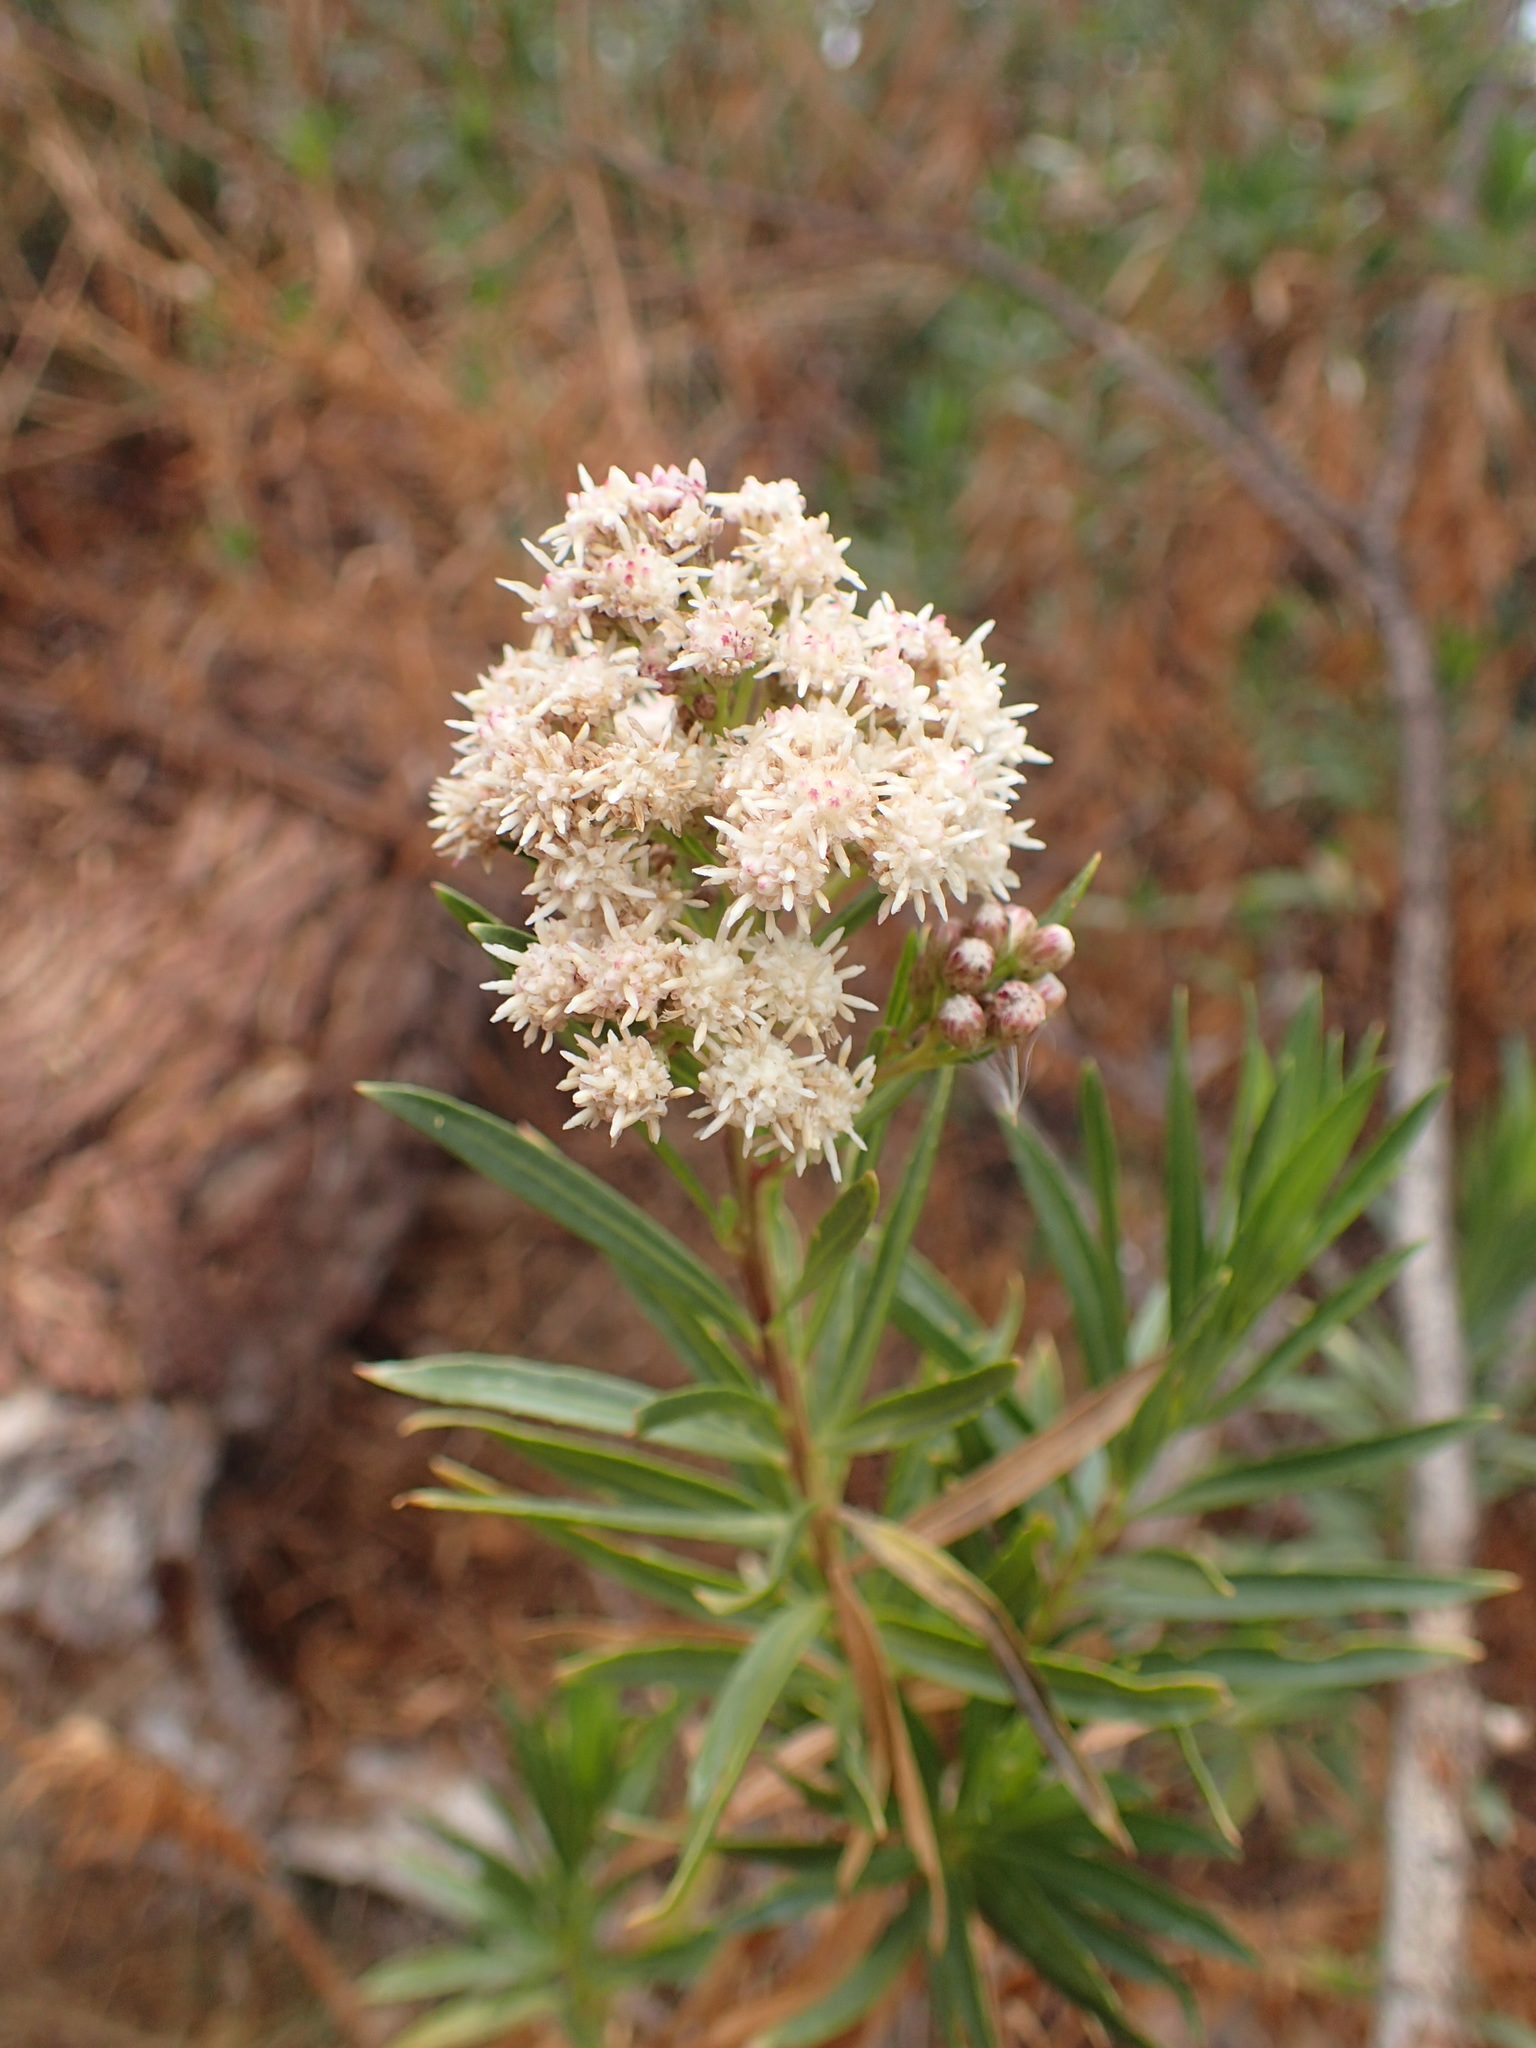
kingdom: Plantae
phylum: Tracheophyta
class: Magnoliopsida
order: Asterales
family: Asteraceae
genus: Baccharis
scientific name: Baccharis salicifolia
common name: Sticky baccharis
